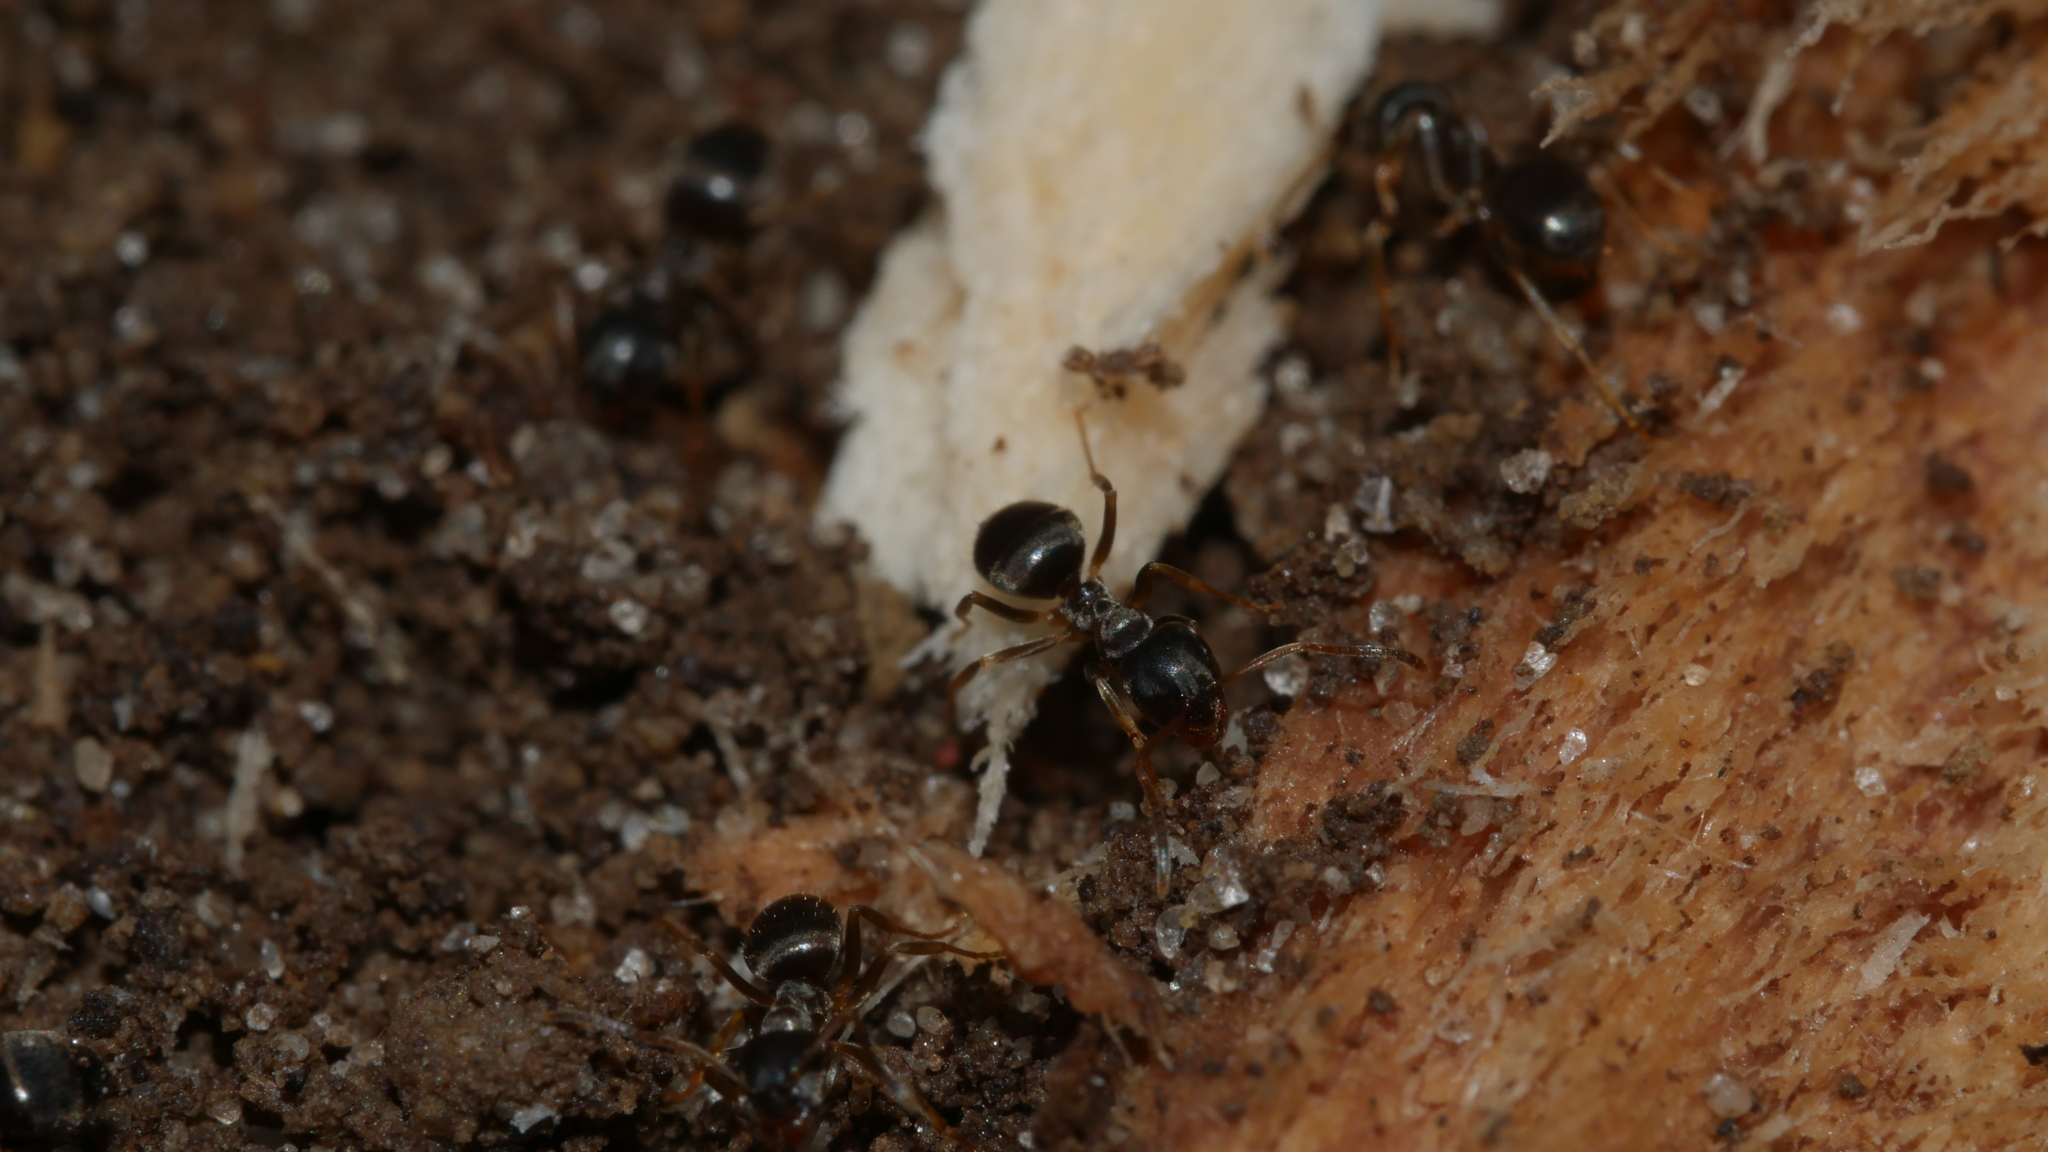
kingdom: Animalia
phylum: Arthropoda
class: Insecta
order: Hymenoptera
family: Formicidae
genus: Lasius
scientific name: Lasius americanus
